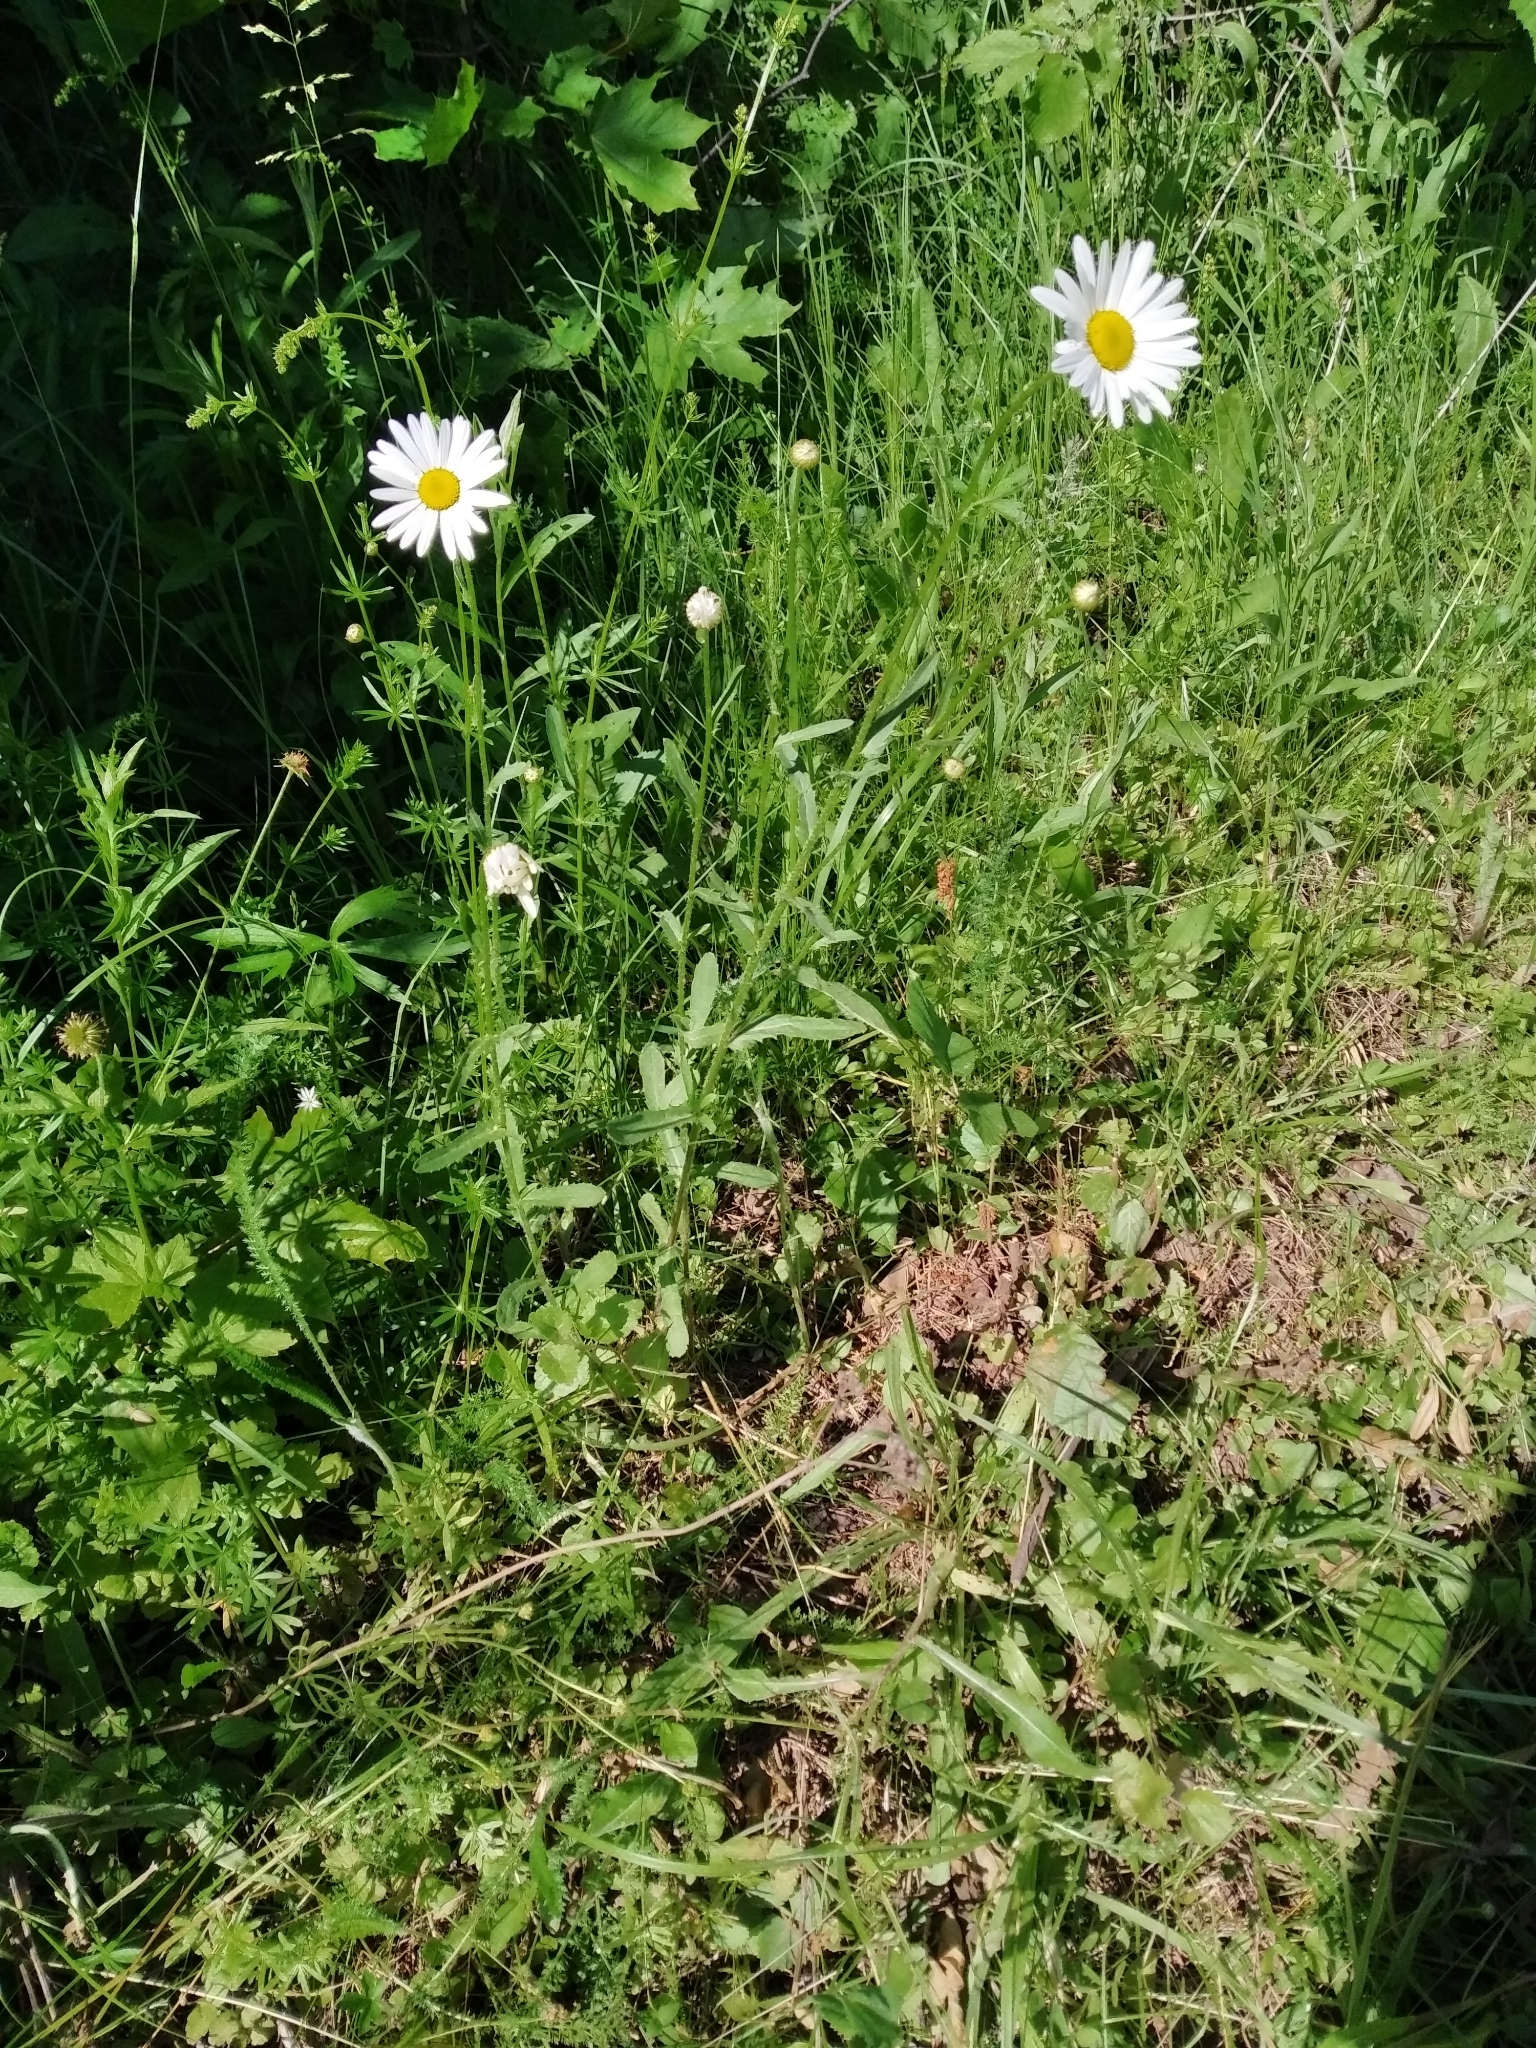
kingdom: Plantae
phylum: Tracheophyta
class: Magnoliopsida
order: Asterales
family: Asteraceae
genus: Leucanthemum
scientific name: Leucanthemum vulgare
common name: Oxeye daisy
